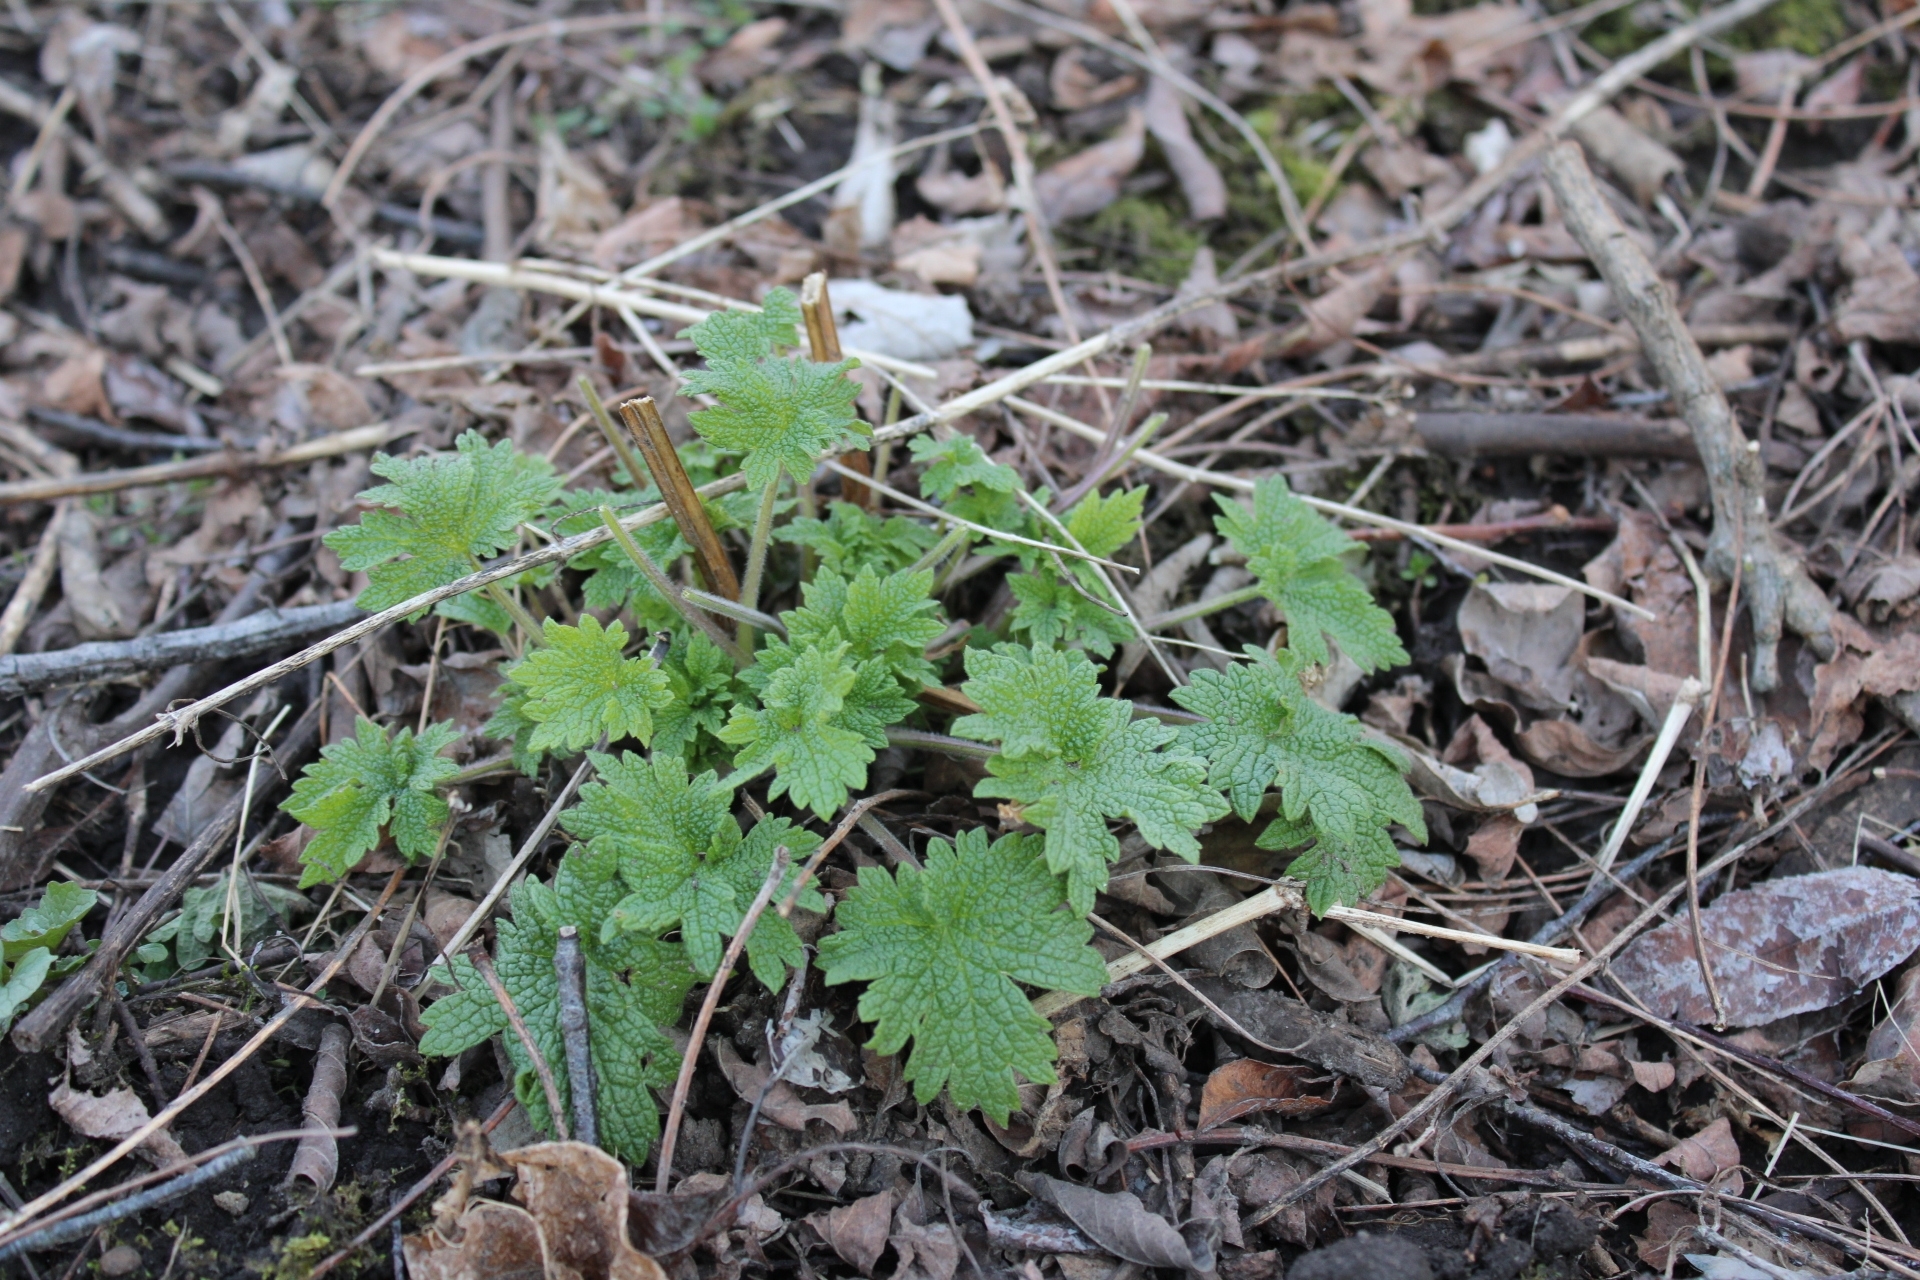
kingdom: Plantae
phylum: Tracheophyta
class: Magnoliopsida
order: Lamiales
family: Lamiaceae
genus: Leonurus
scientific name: Leonurus cardiaca
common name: Motherwort
